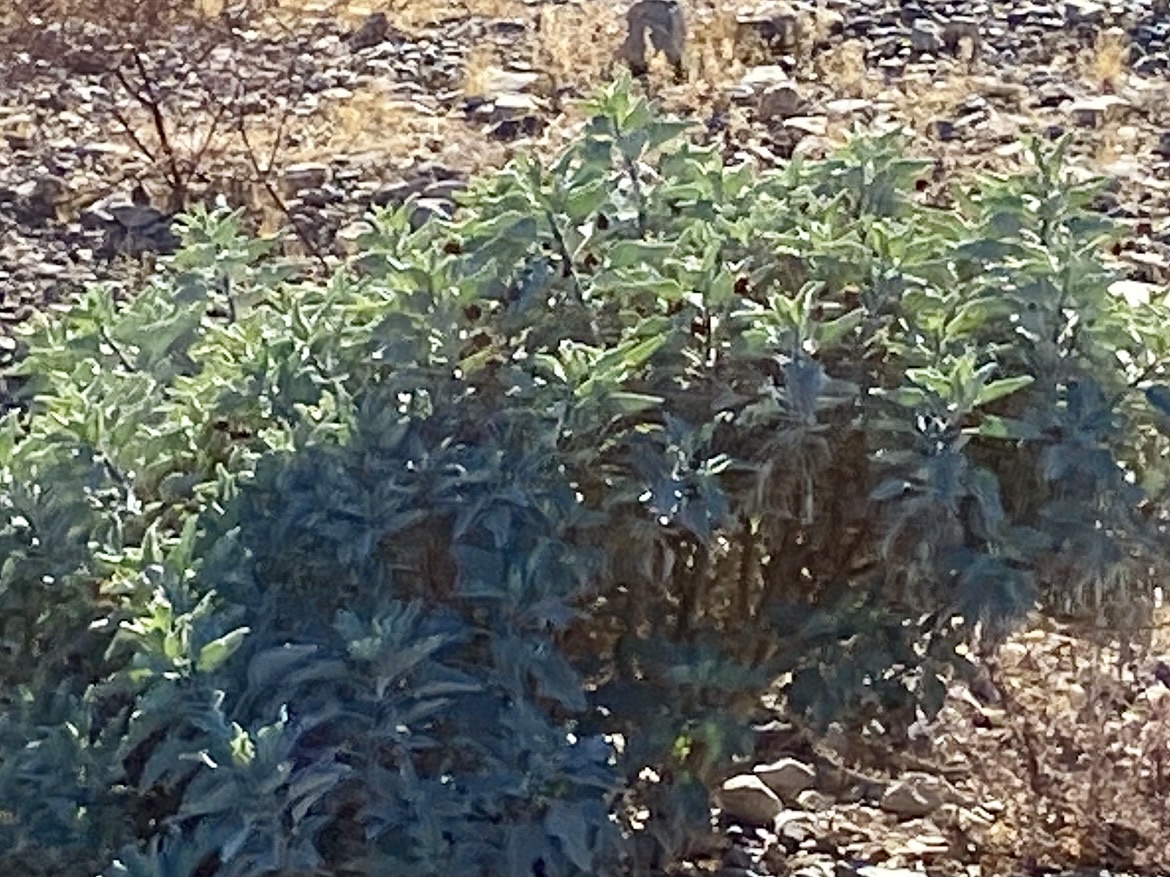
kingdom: Plantae
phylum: Tracheophyta
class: Magnoliopsida
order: Asterales
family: Asteraceae
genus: Encelia
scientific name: Encelia farinosa
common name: Brittlebush
